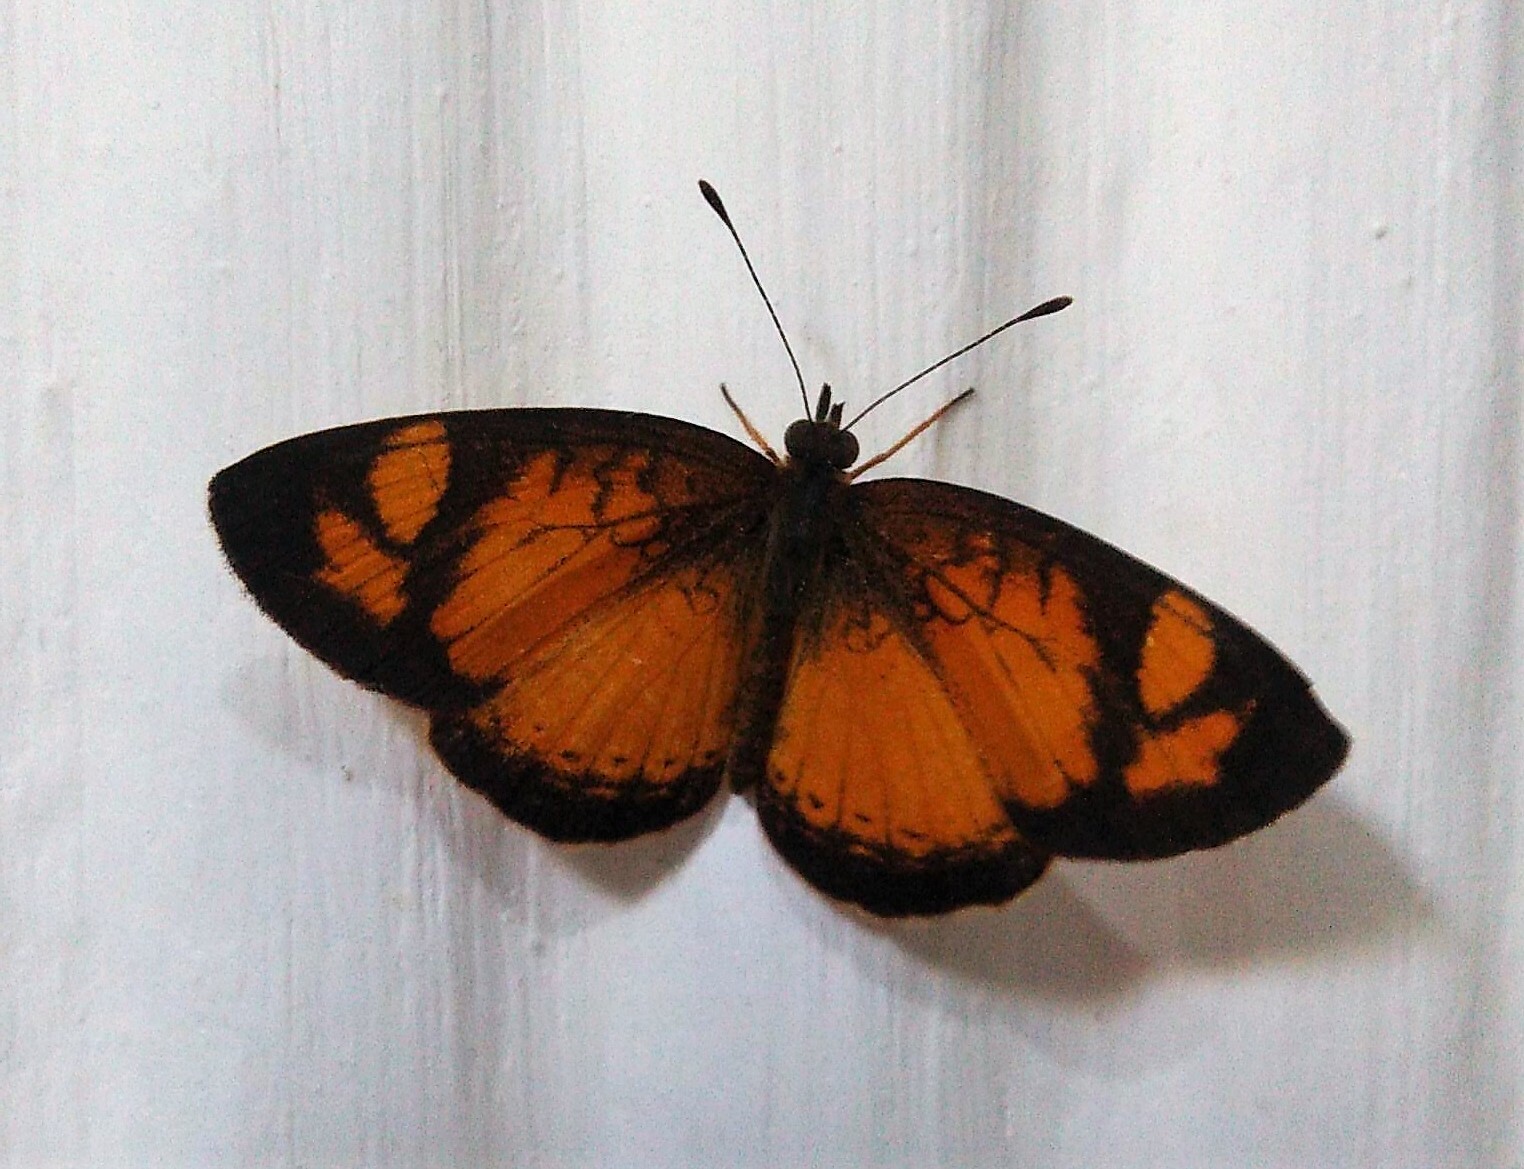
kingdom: Animalia
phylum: Arthropoda
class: Insecta
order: Lepidoptera
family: Nymphalidae
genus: Tegosa
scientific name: Tegosa claudina
